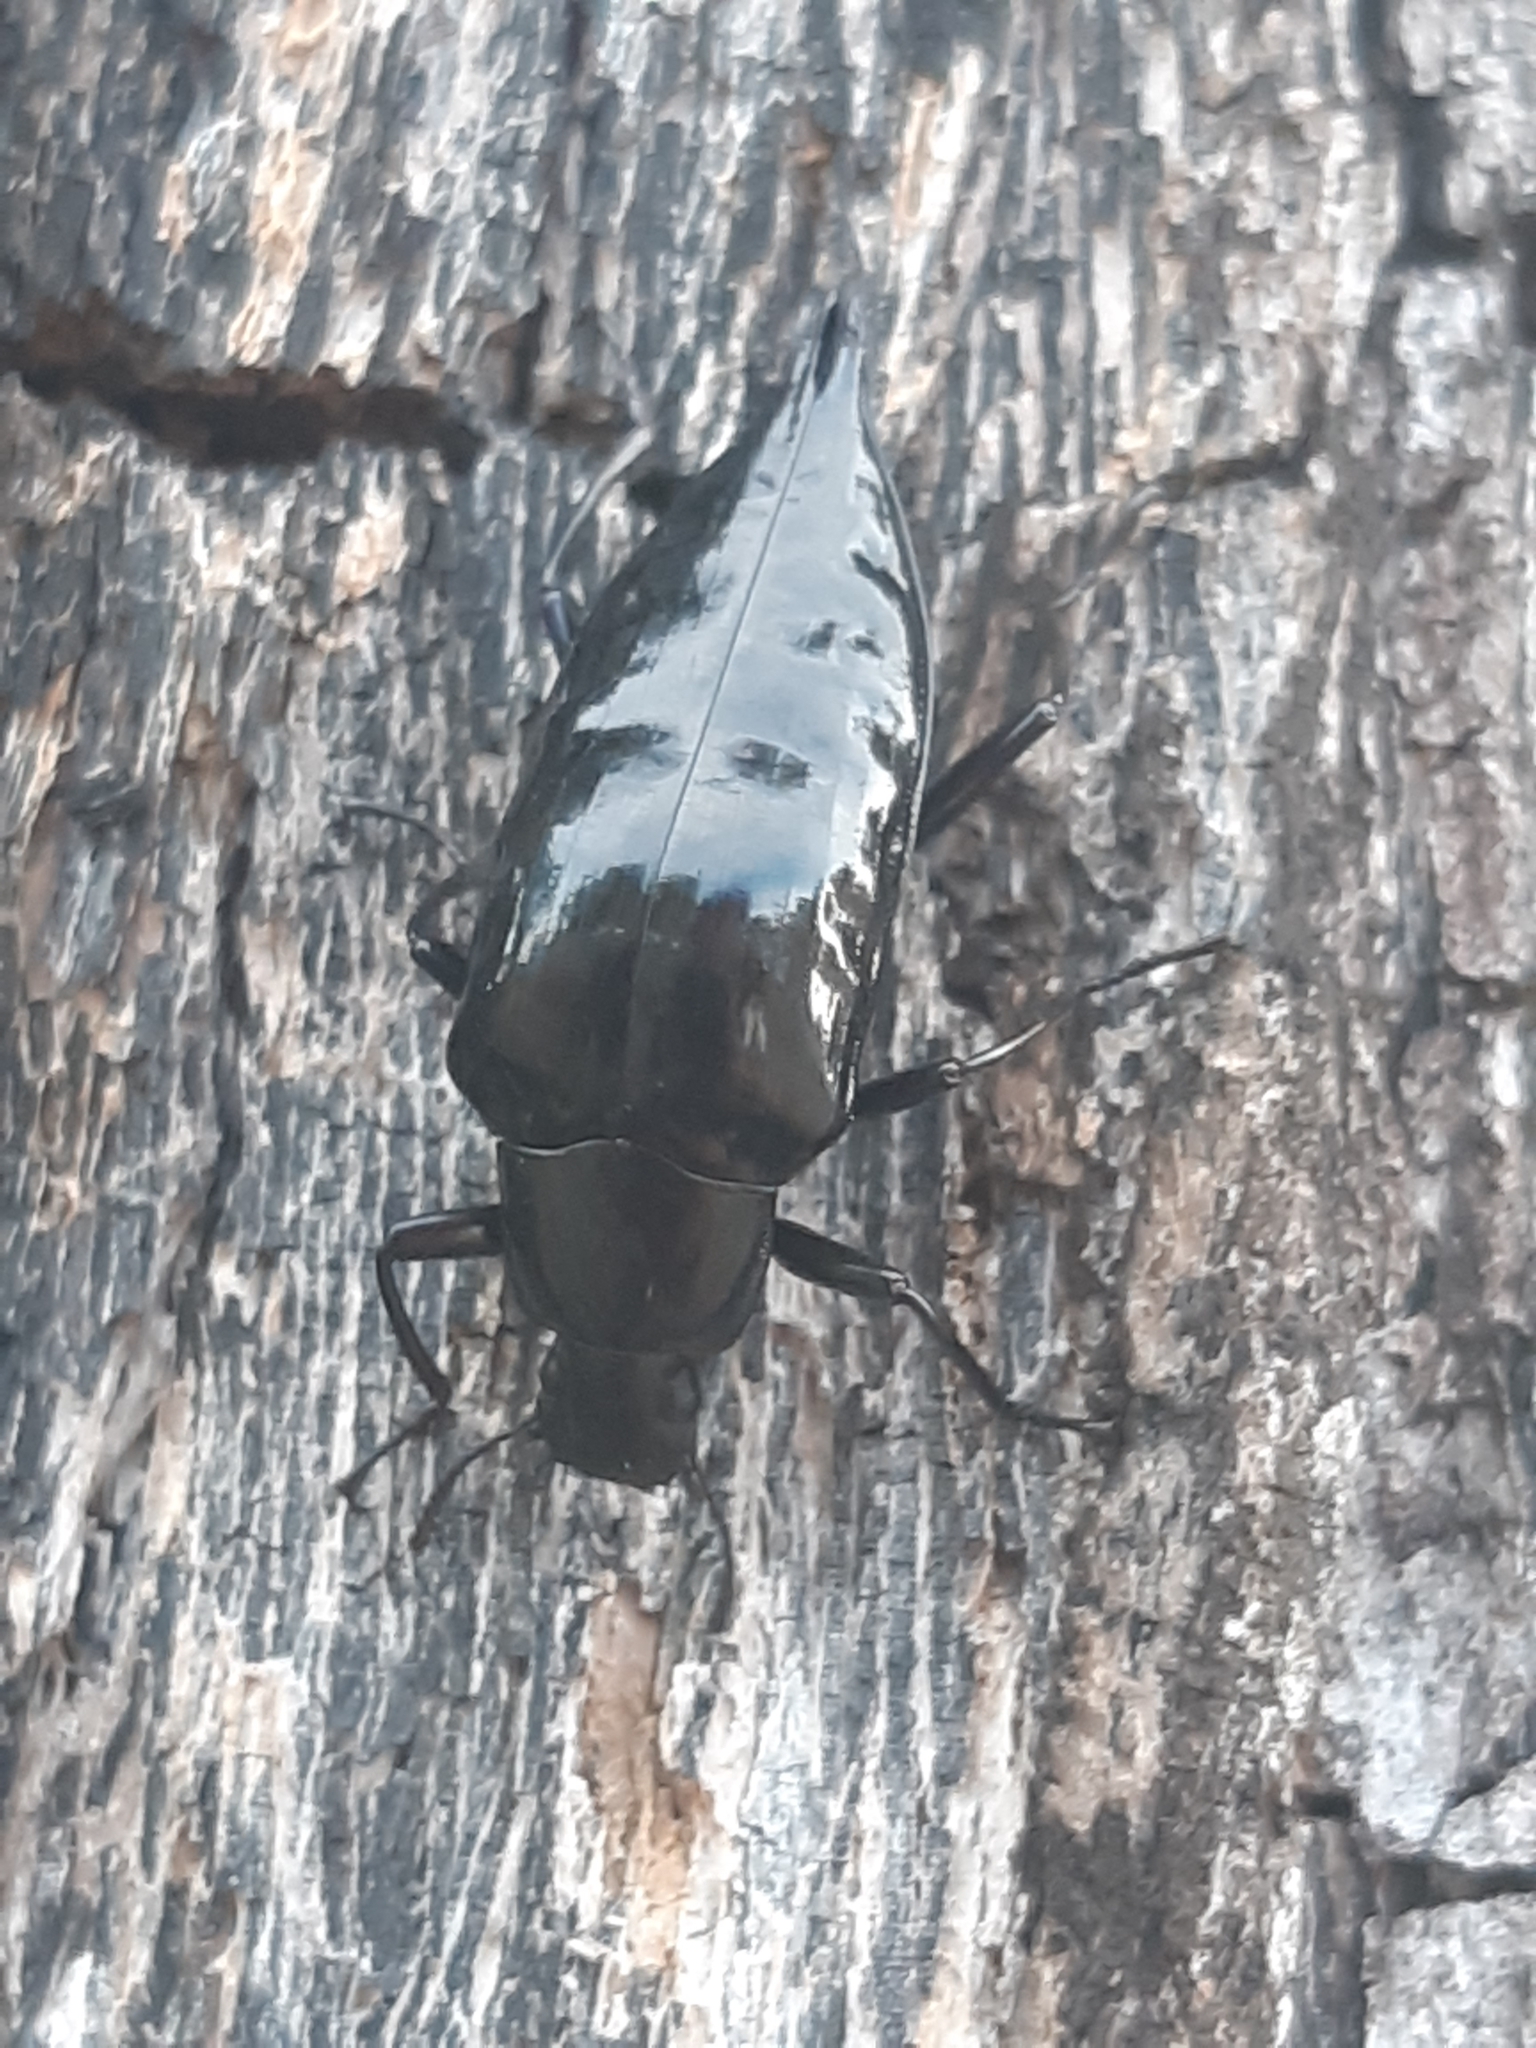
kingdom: Animalia
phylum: Arthropoda
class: Insecta
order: Coleoptera
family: Tenebrionidae
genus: Blapida
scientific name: Blapida
